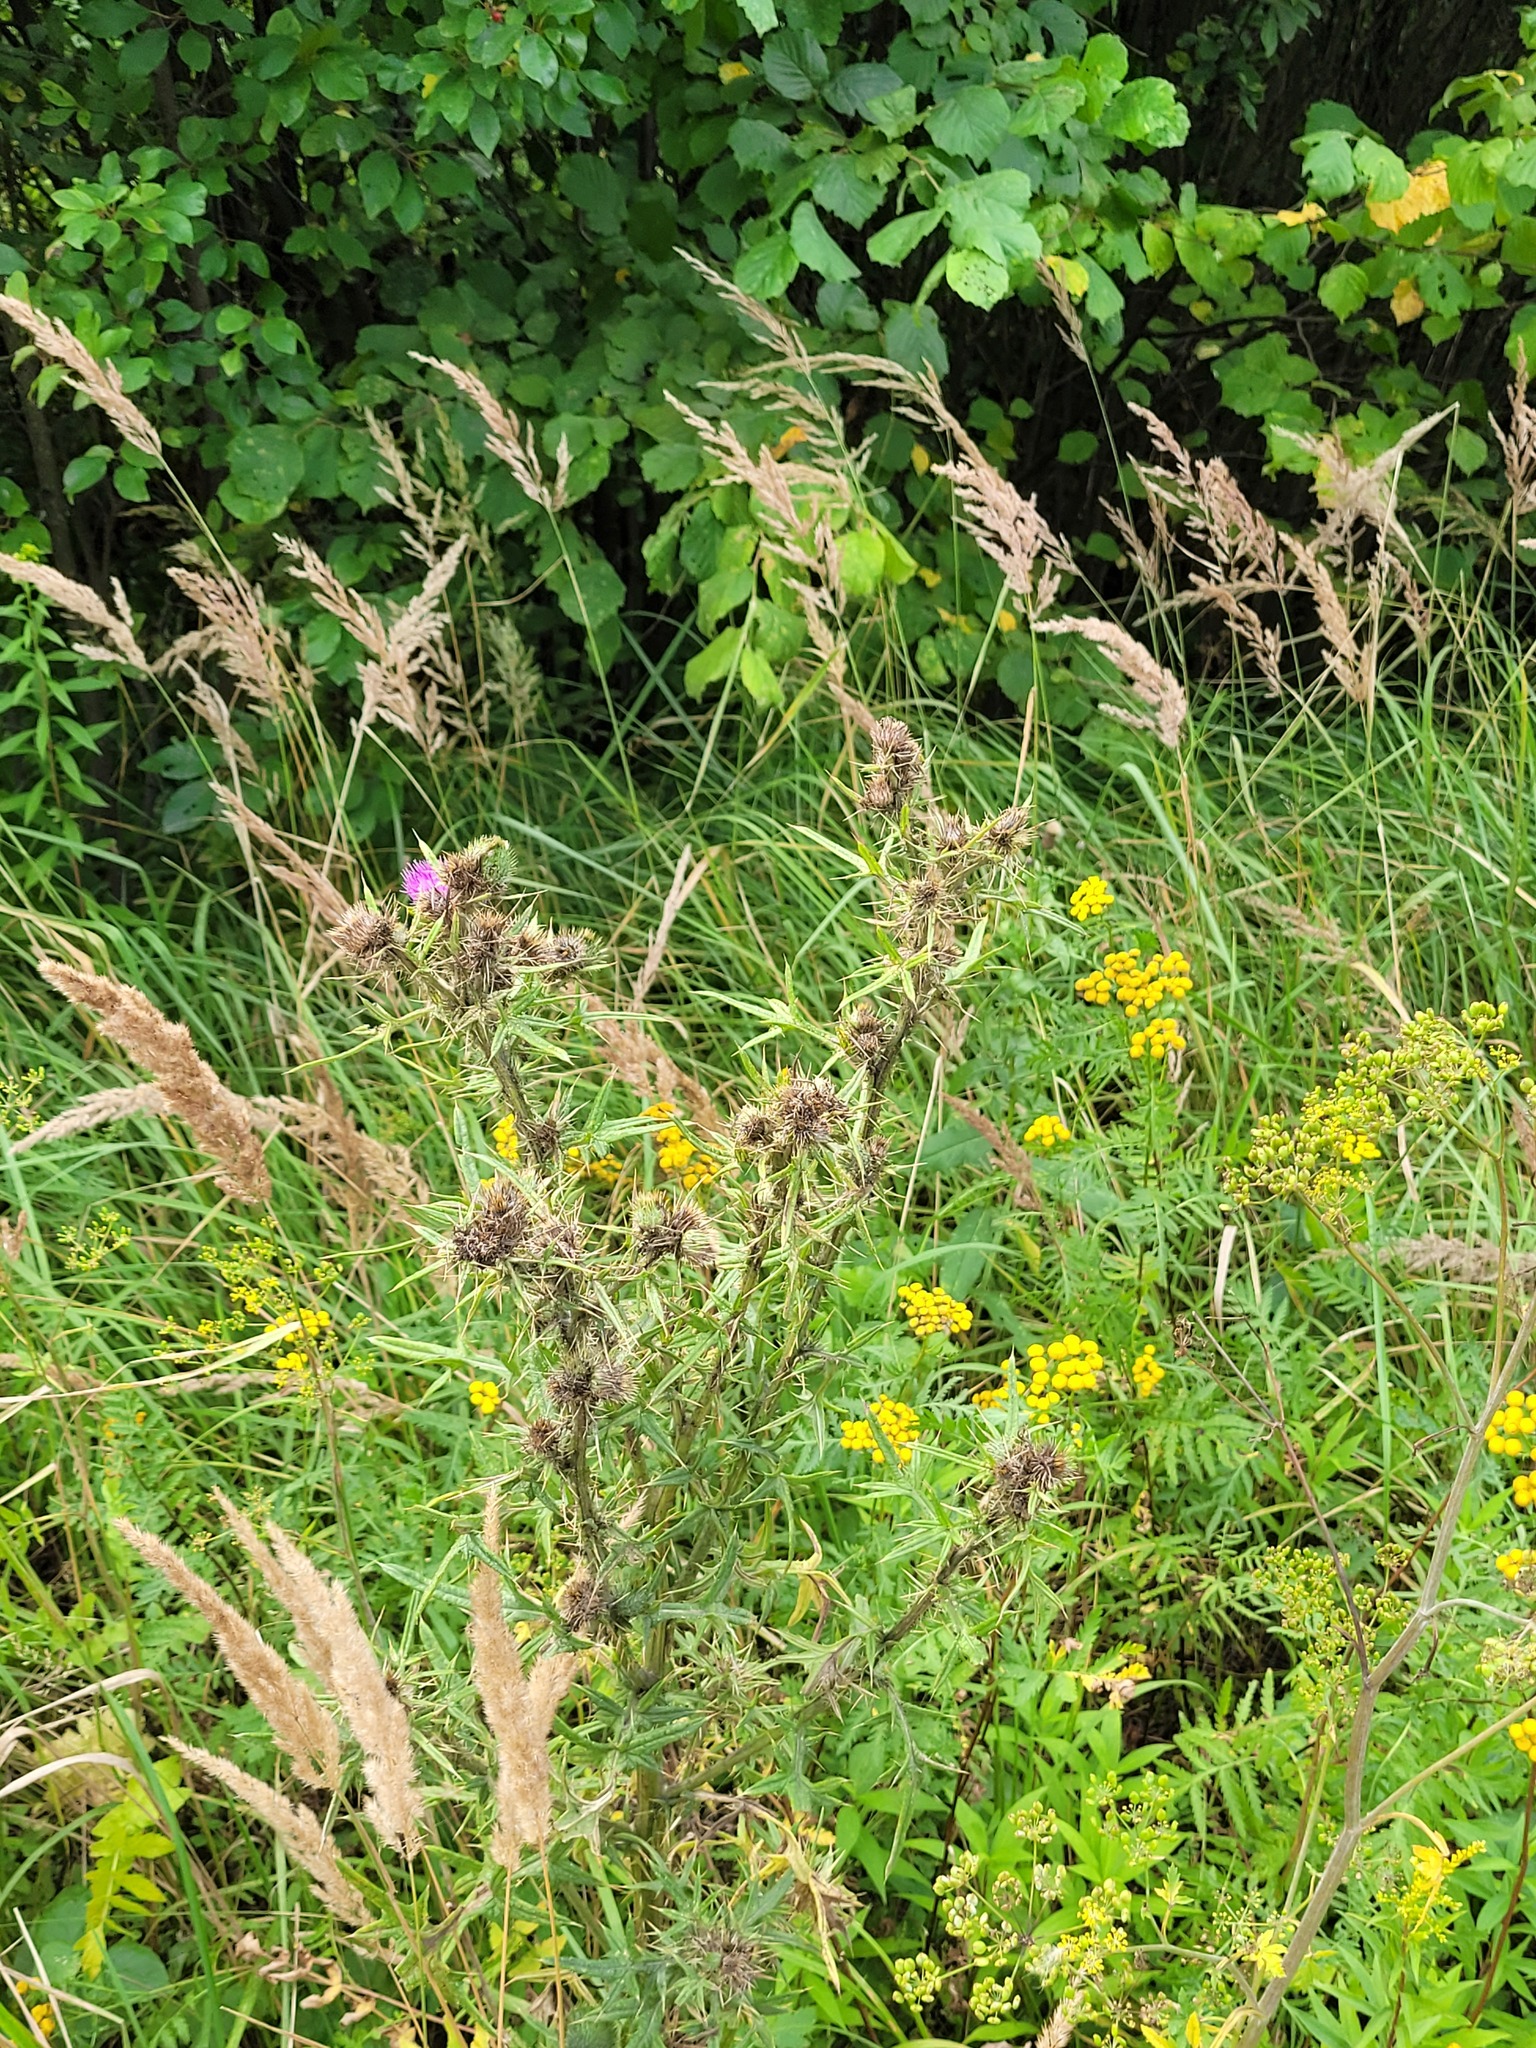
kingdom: Plantae
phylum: Tracheophyta
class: Magnoliopsida
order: Asterales
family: Asteraceae
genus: Cirsium
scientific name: Cirsium vulgare
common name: Bull thistle
